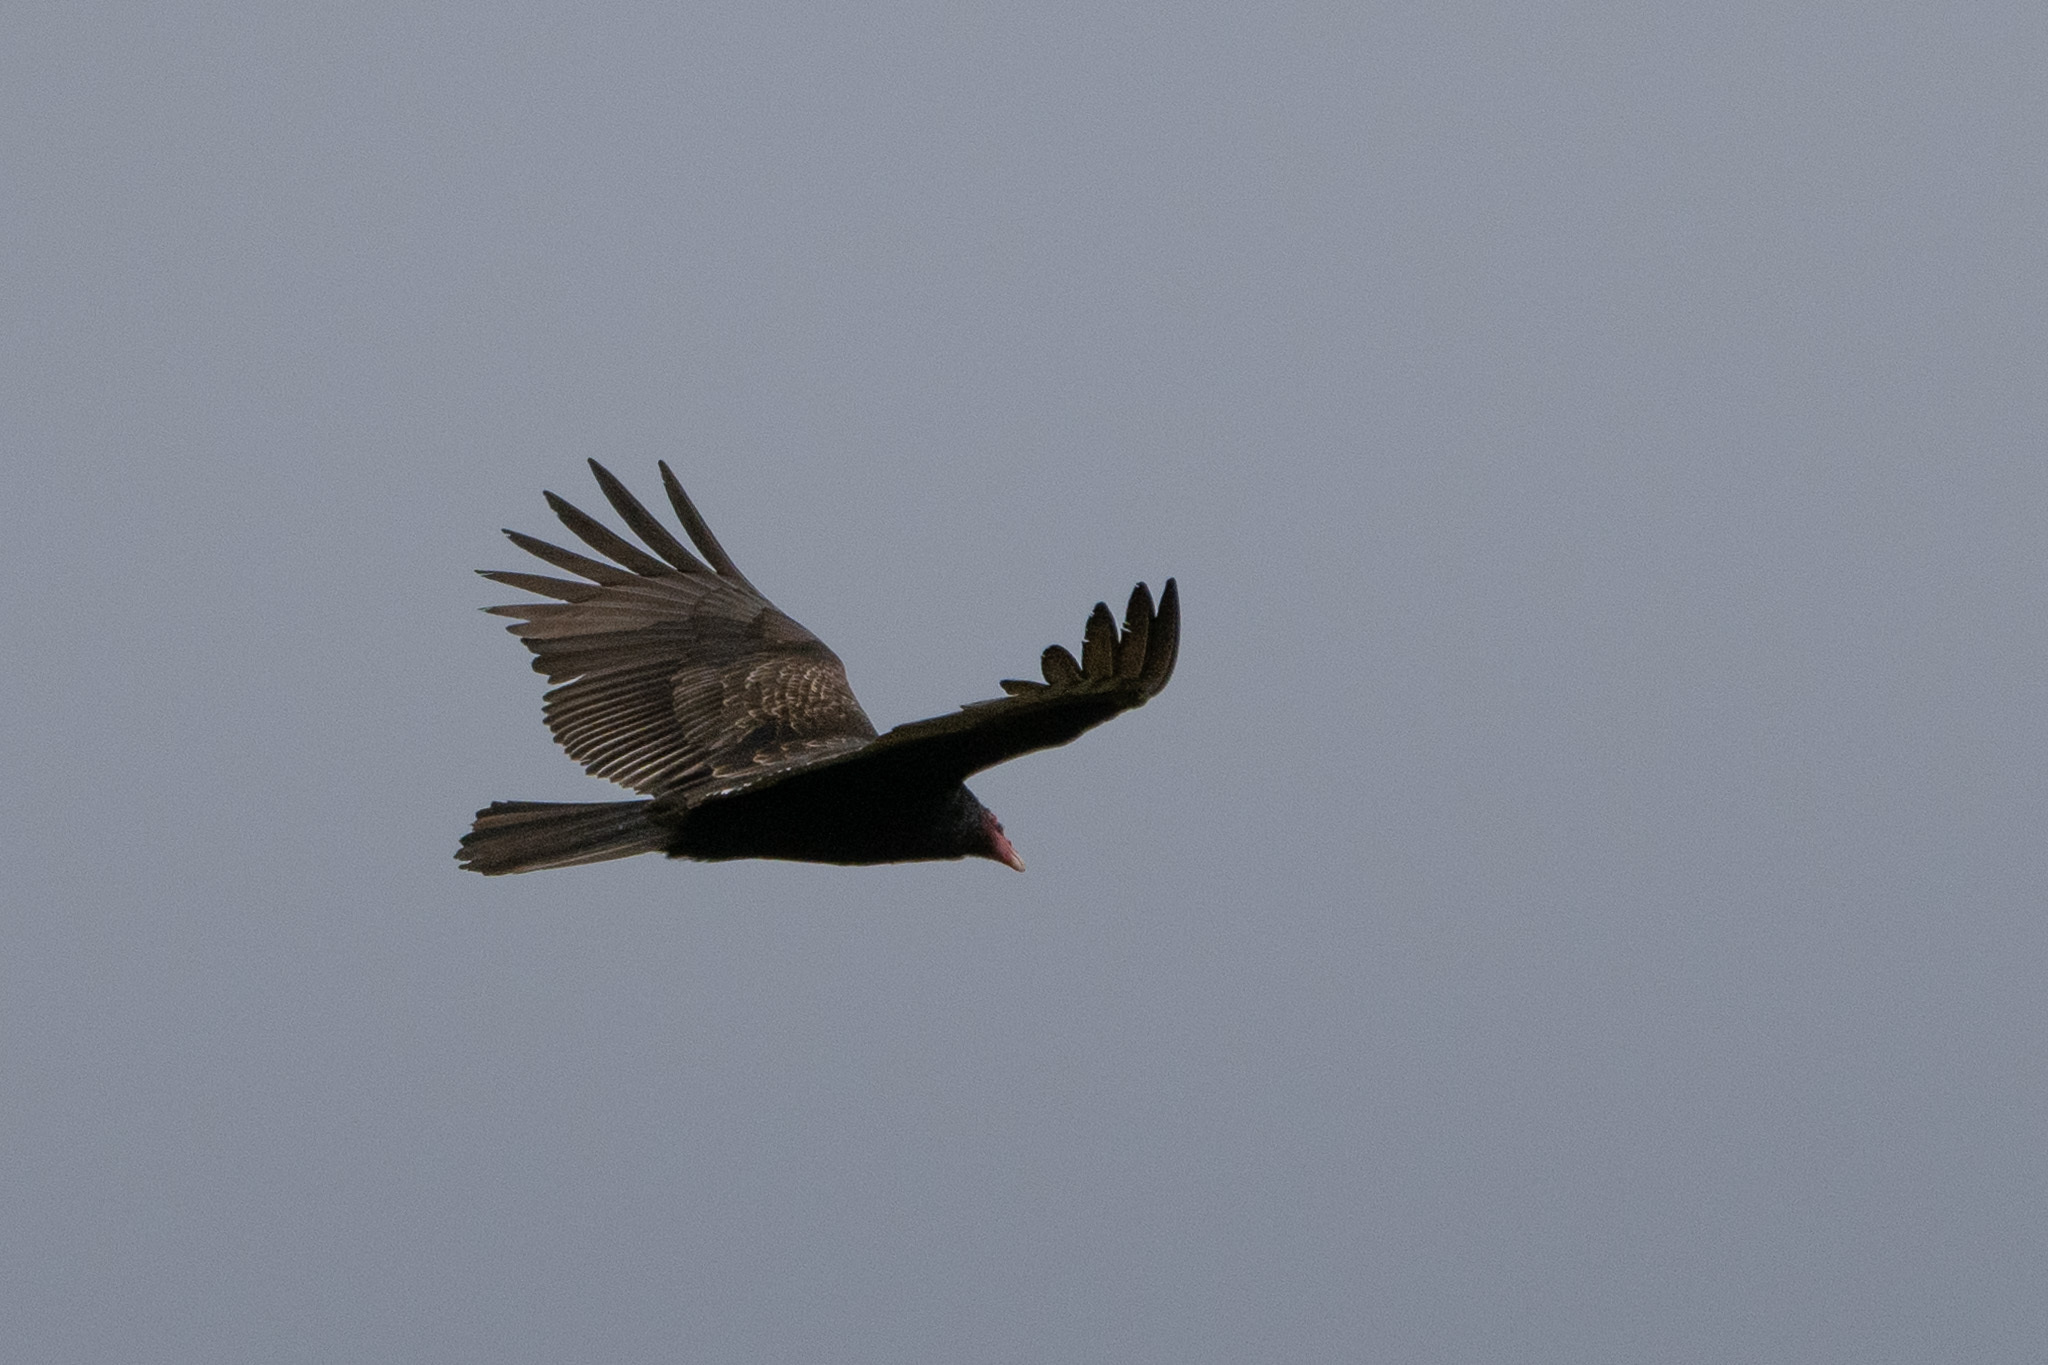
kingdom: Animalia
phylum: Chordata
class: Aves
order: Accipitriformes
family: Cathartidae
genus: Cathartes
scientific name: Cathartes aura
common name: Turkey vulture
